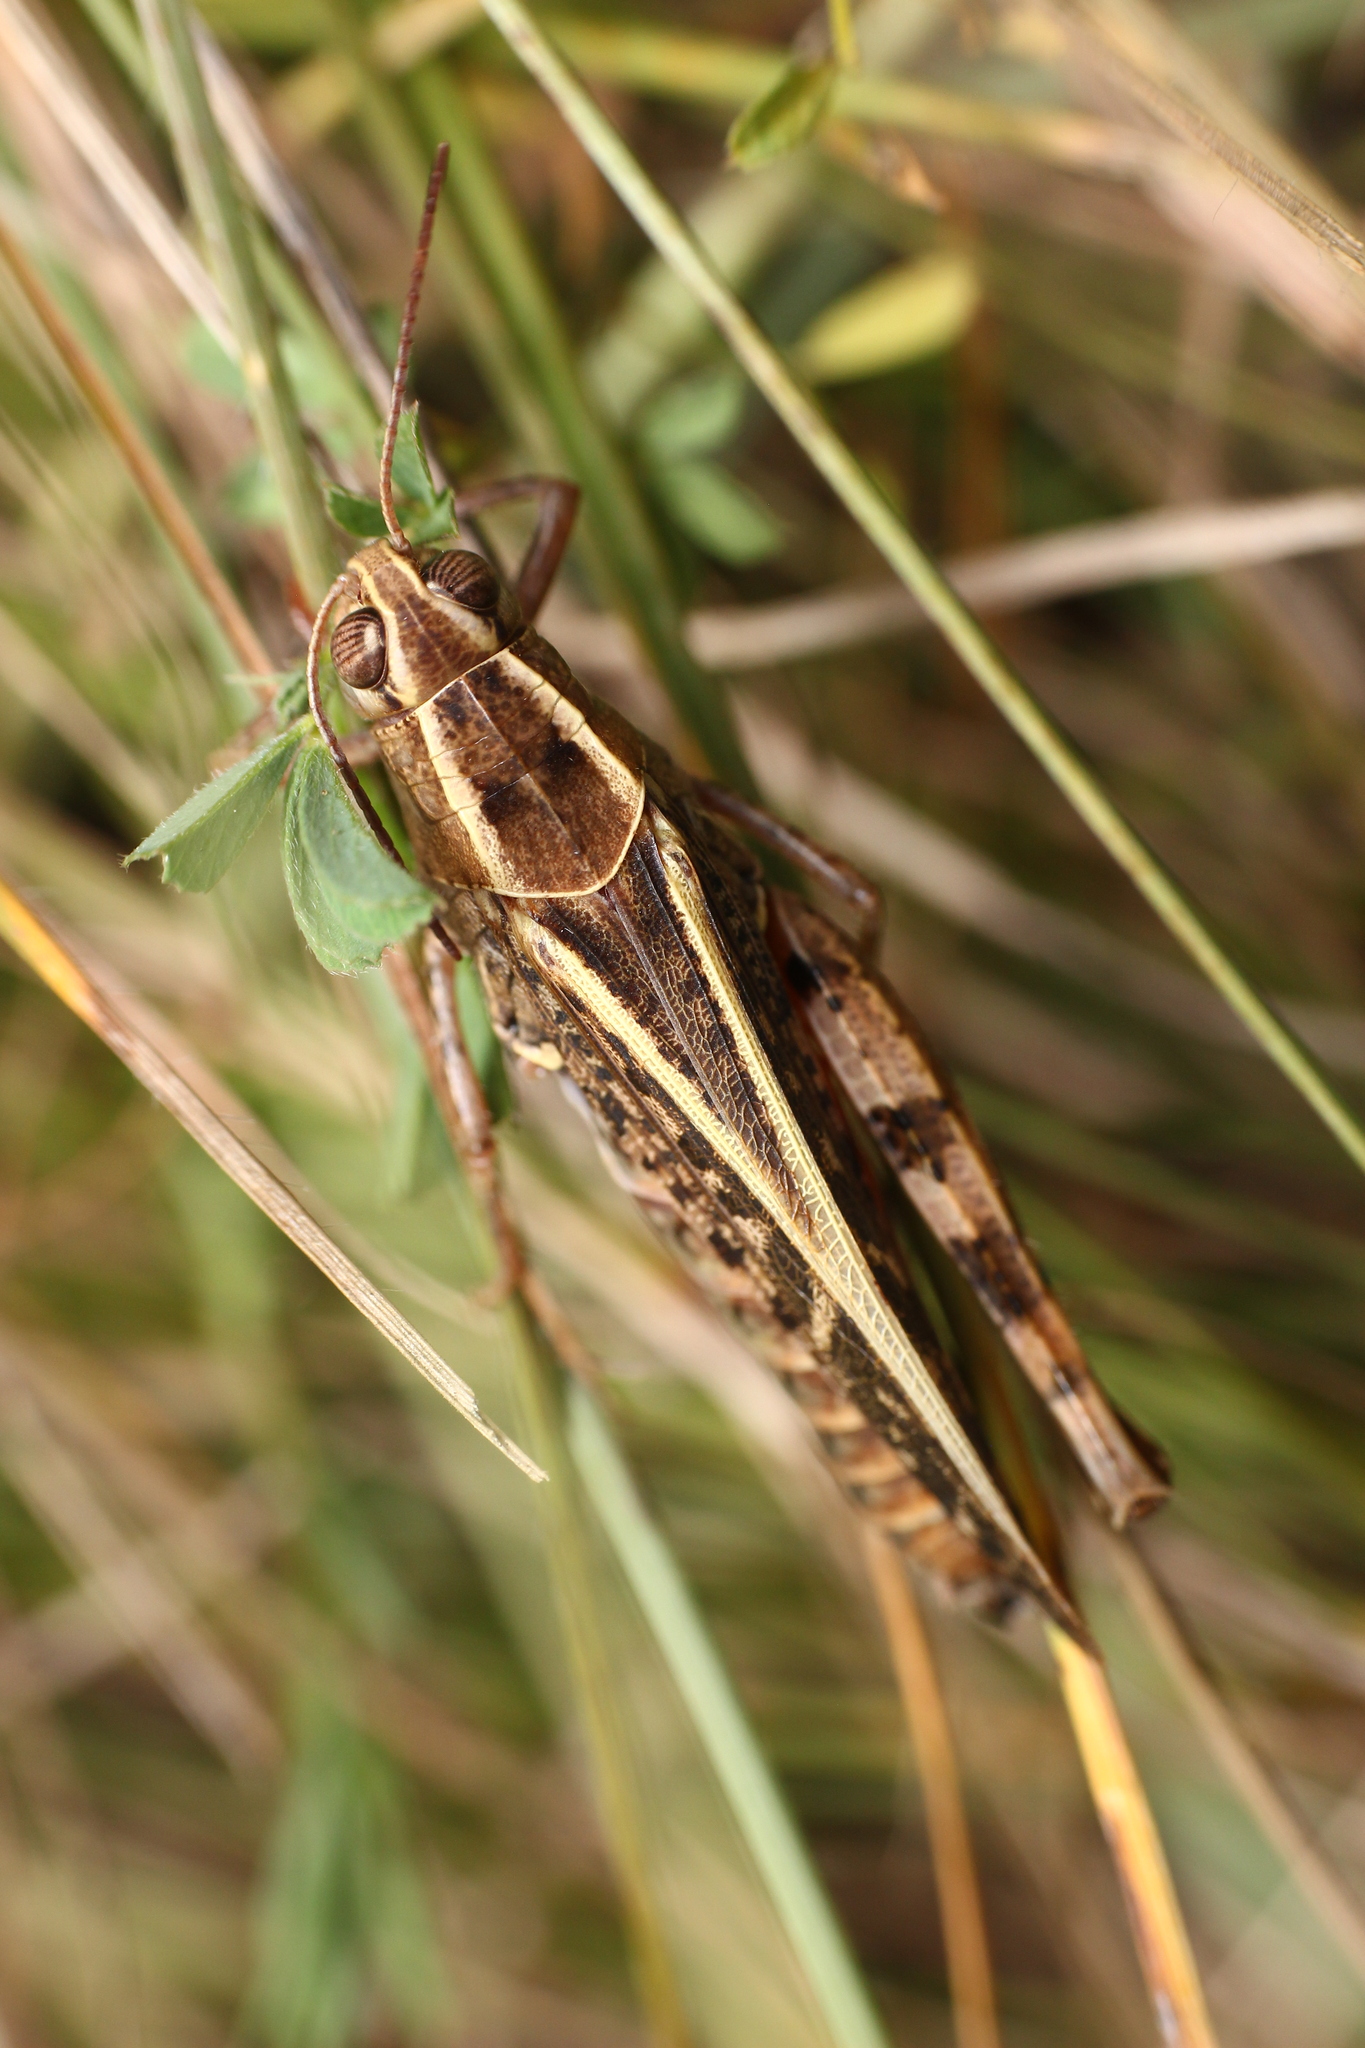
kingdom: Animalia
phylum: Arthropoda
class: Insecta
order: Orthoptera
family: Acrididae
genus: Calliptamus
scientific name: Calliptamus italicus
